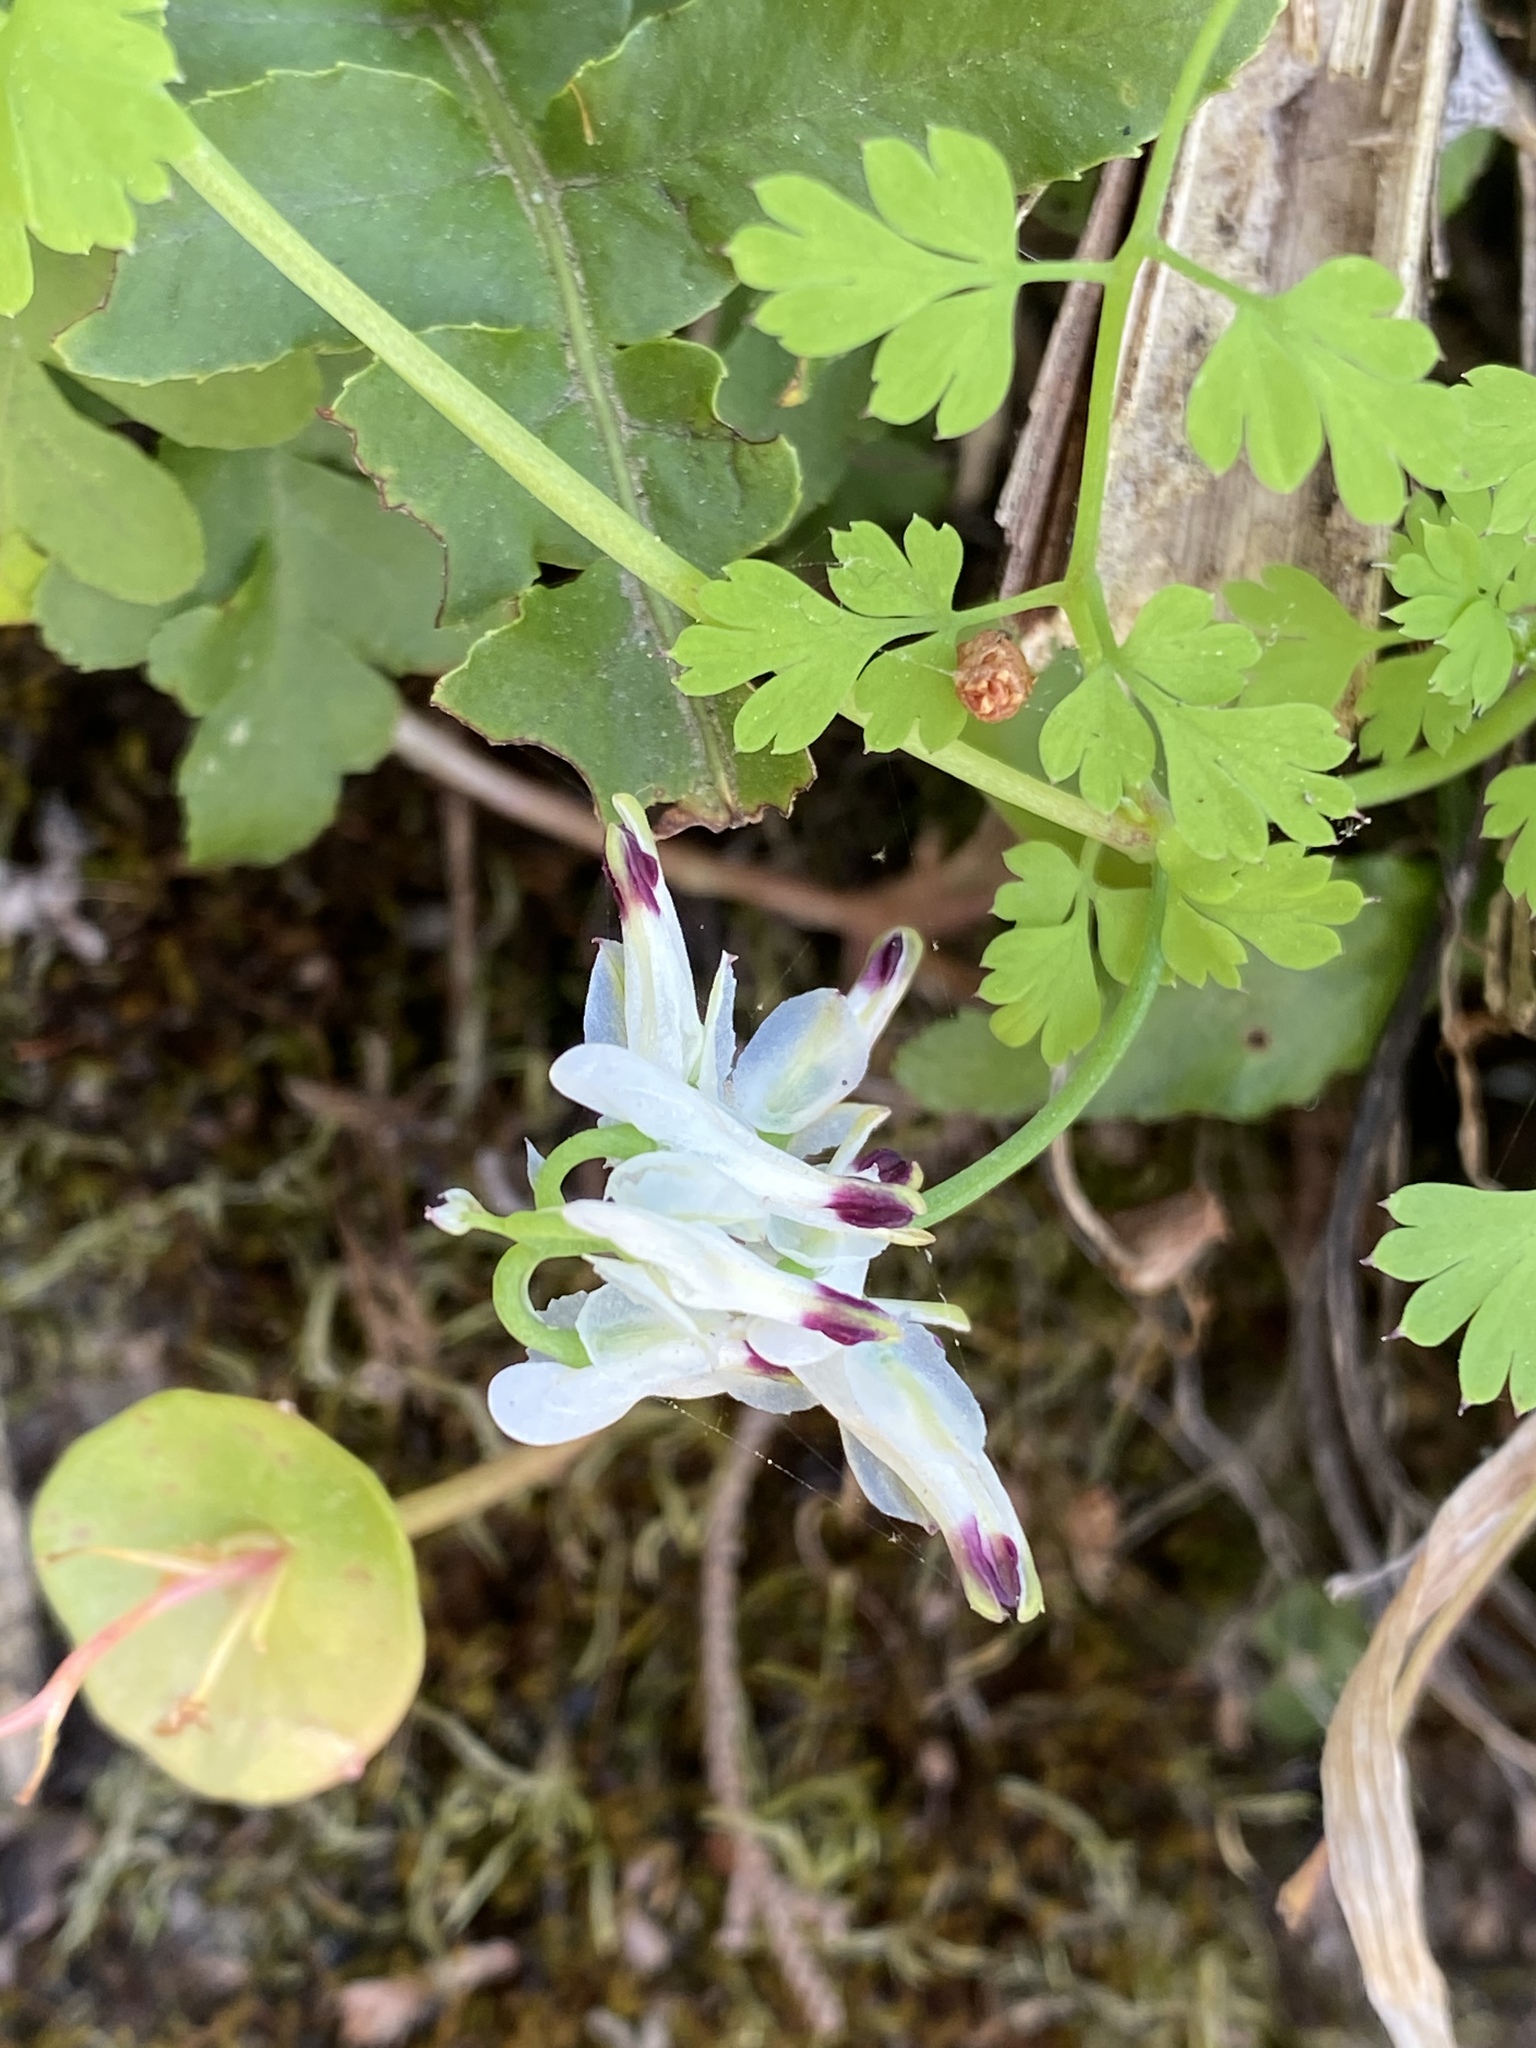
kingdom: Plantae
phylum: Tracheophyta
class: Magnoliopsida
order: Ranunculales
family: Papaveraceae
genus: Fumaria
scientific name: Fumaria capreolata
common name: White ramping-fumitory
